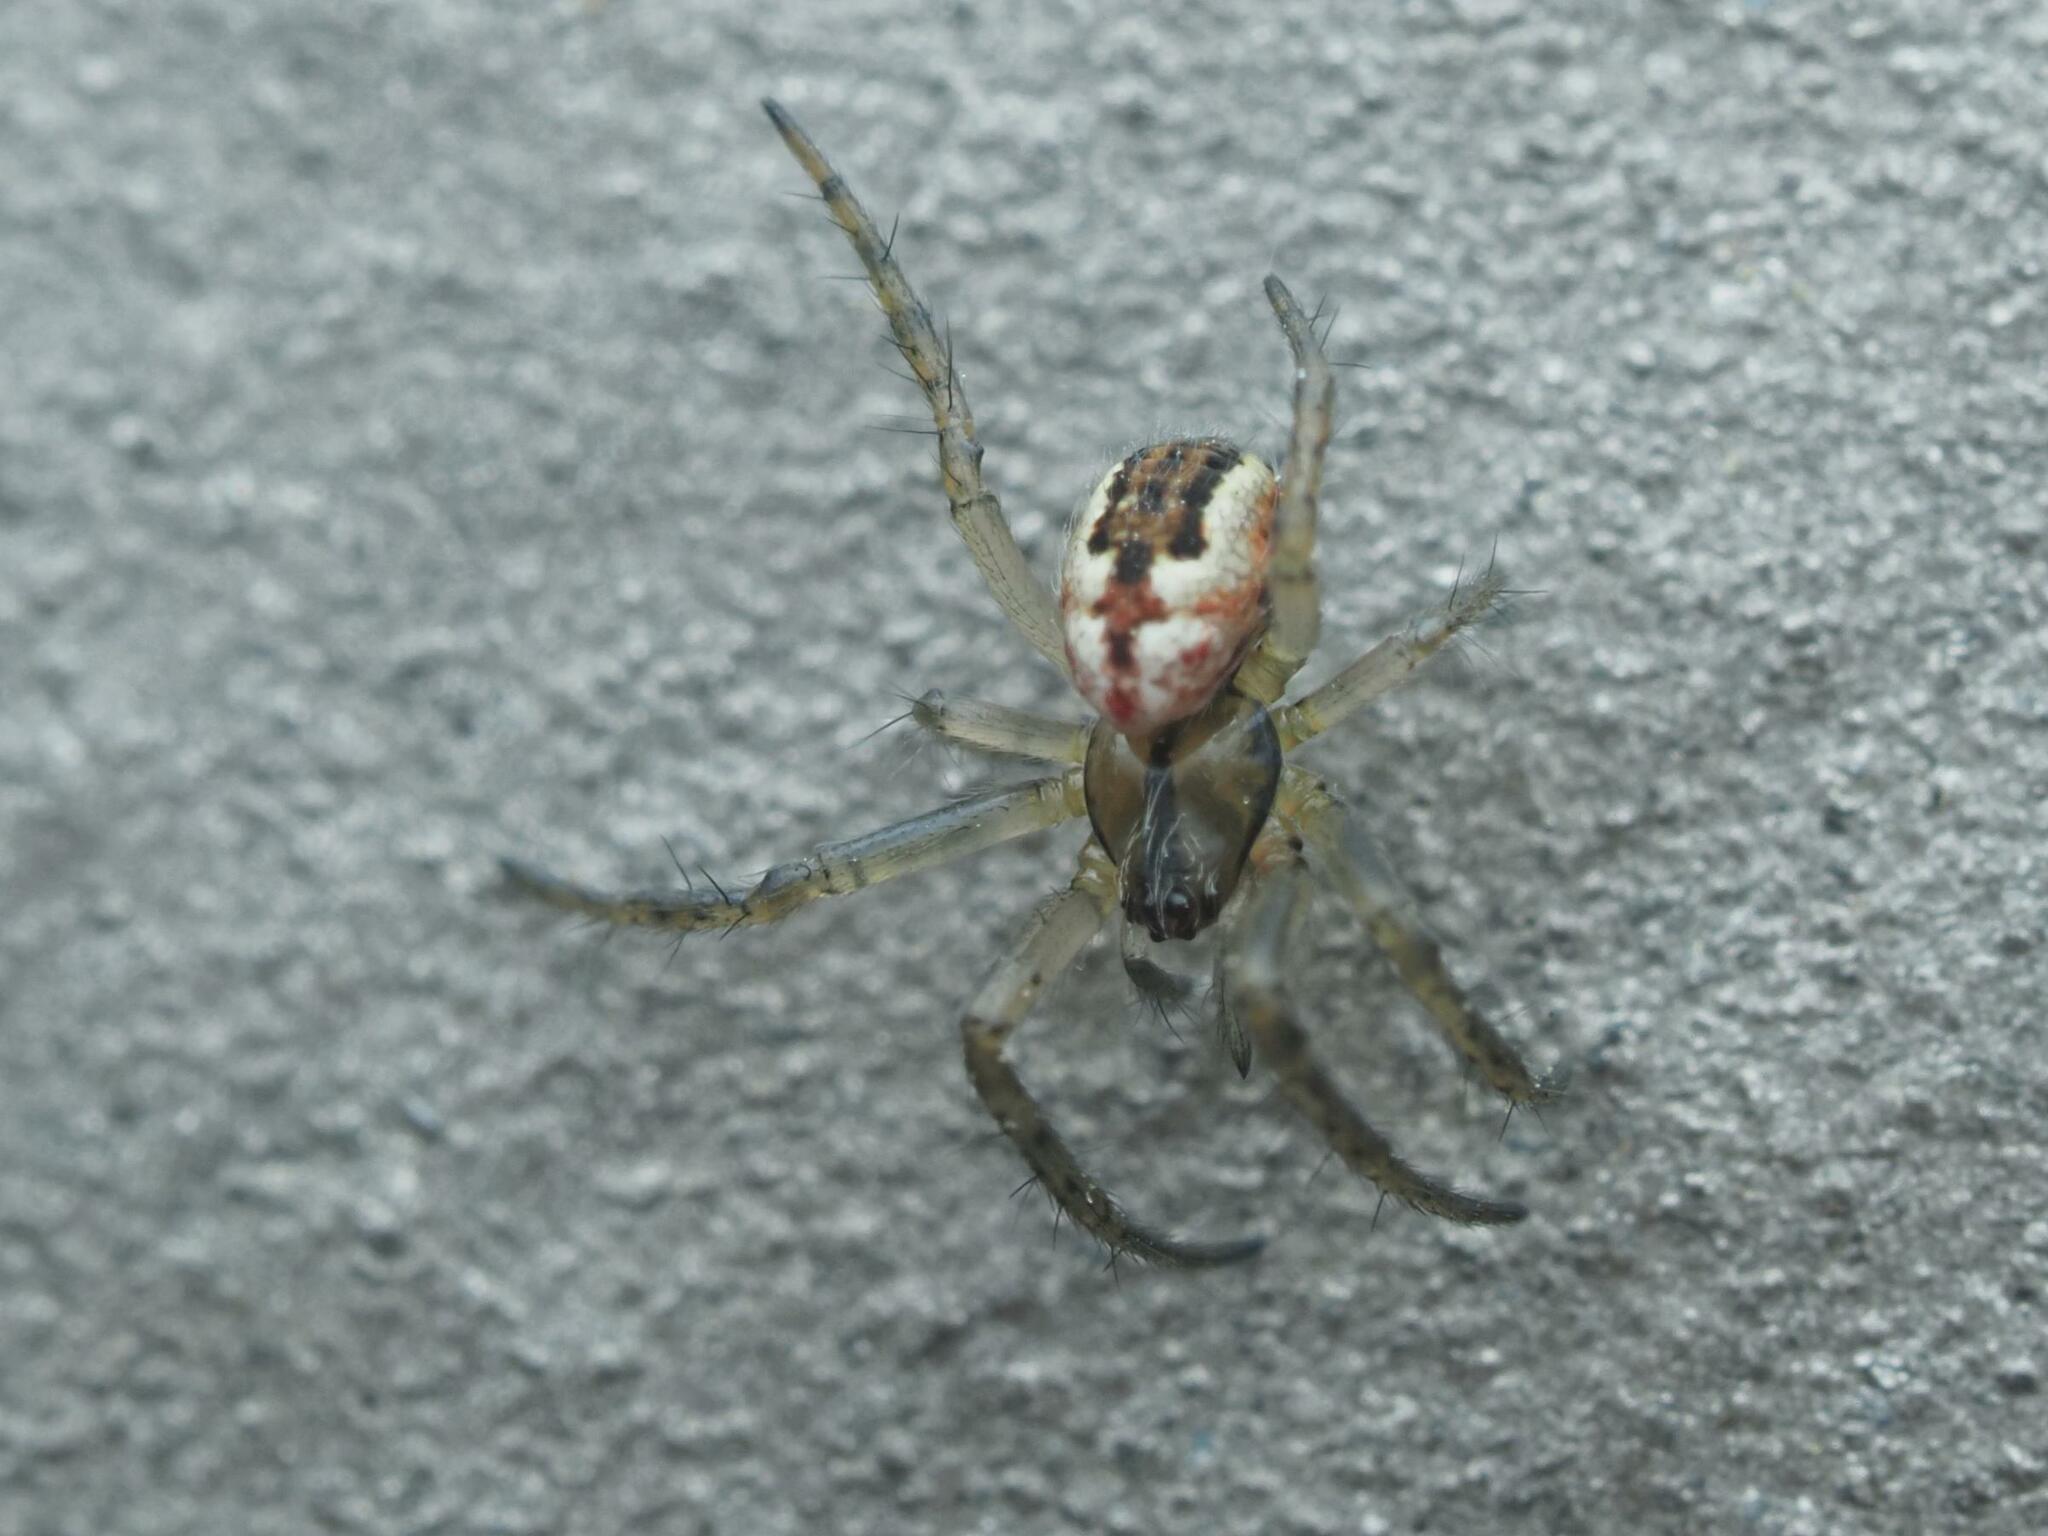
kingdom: Animalia
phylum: Arthropoda
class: Arachnida
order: Araneae
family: Araneidae
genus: Mangora
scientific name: Mangora acalypha
